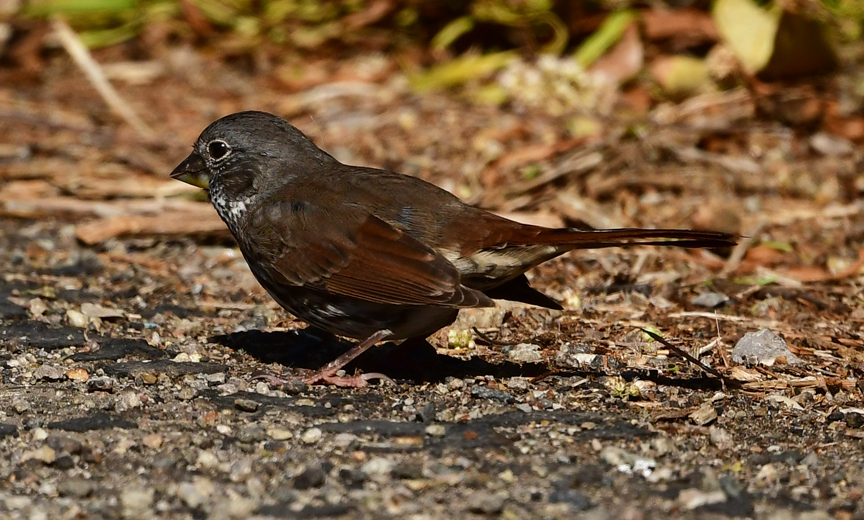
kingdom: Animalia
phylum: Chordata
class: Aves
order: Passeriformes
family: Passerellidae
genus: Passerella
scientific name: Passerella iliaca
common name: Fox sparrow
